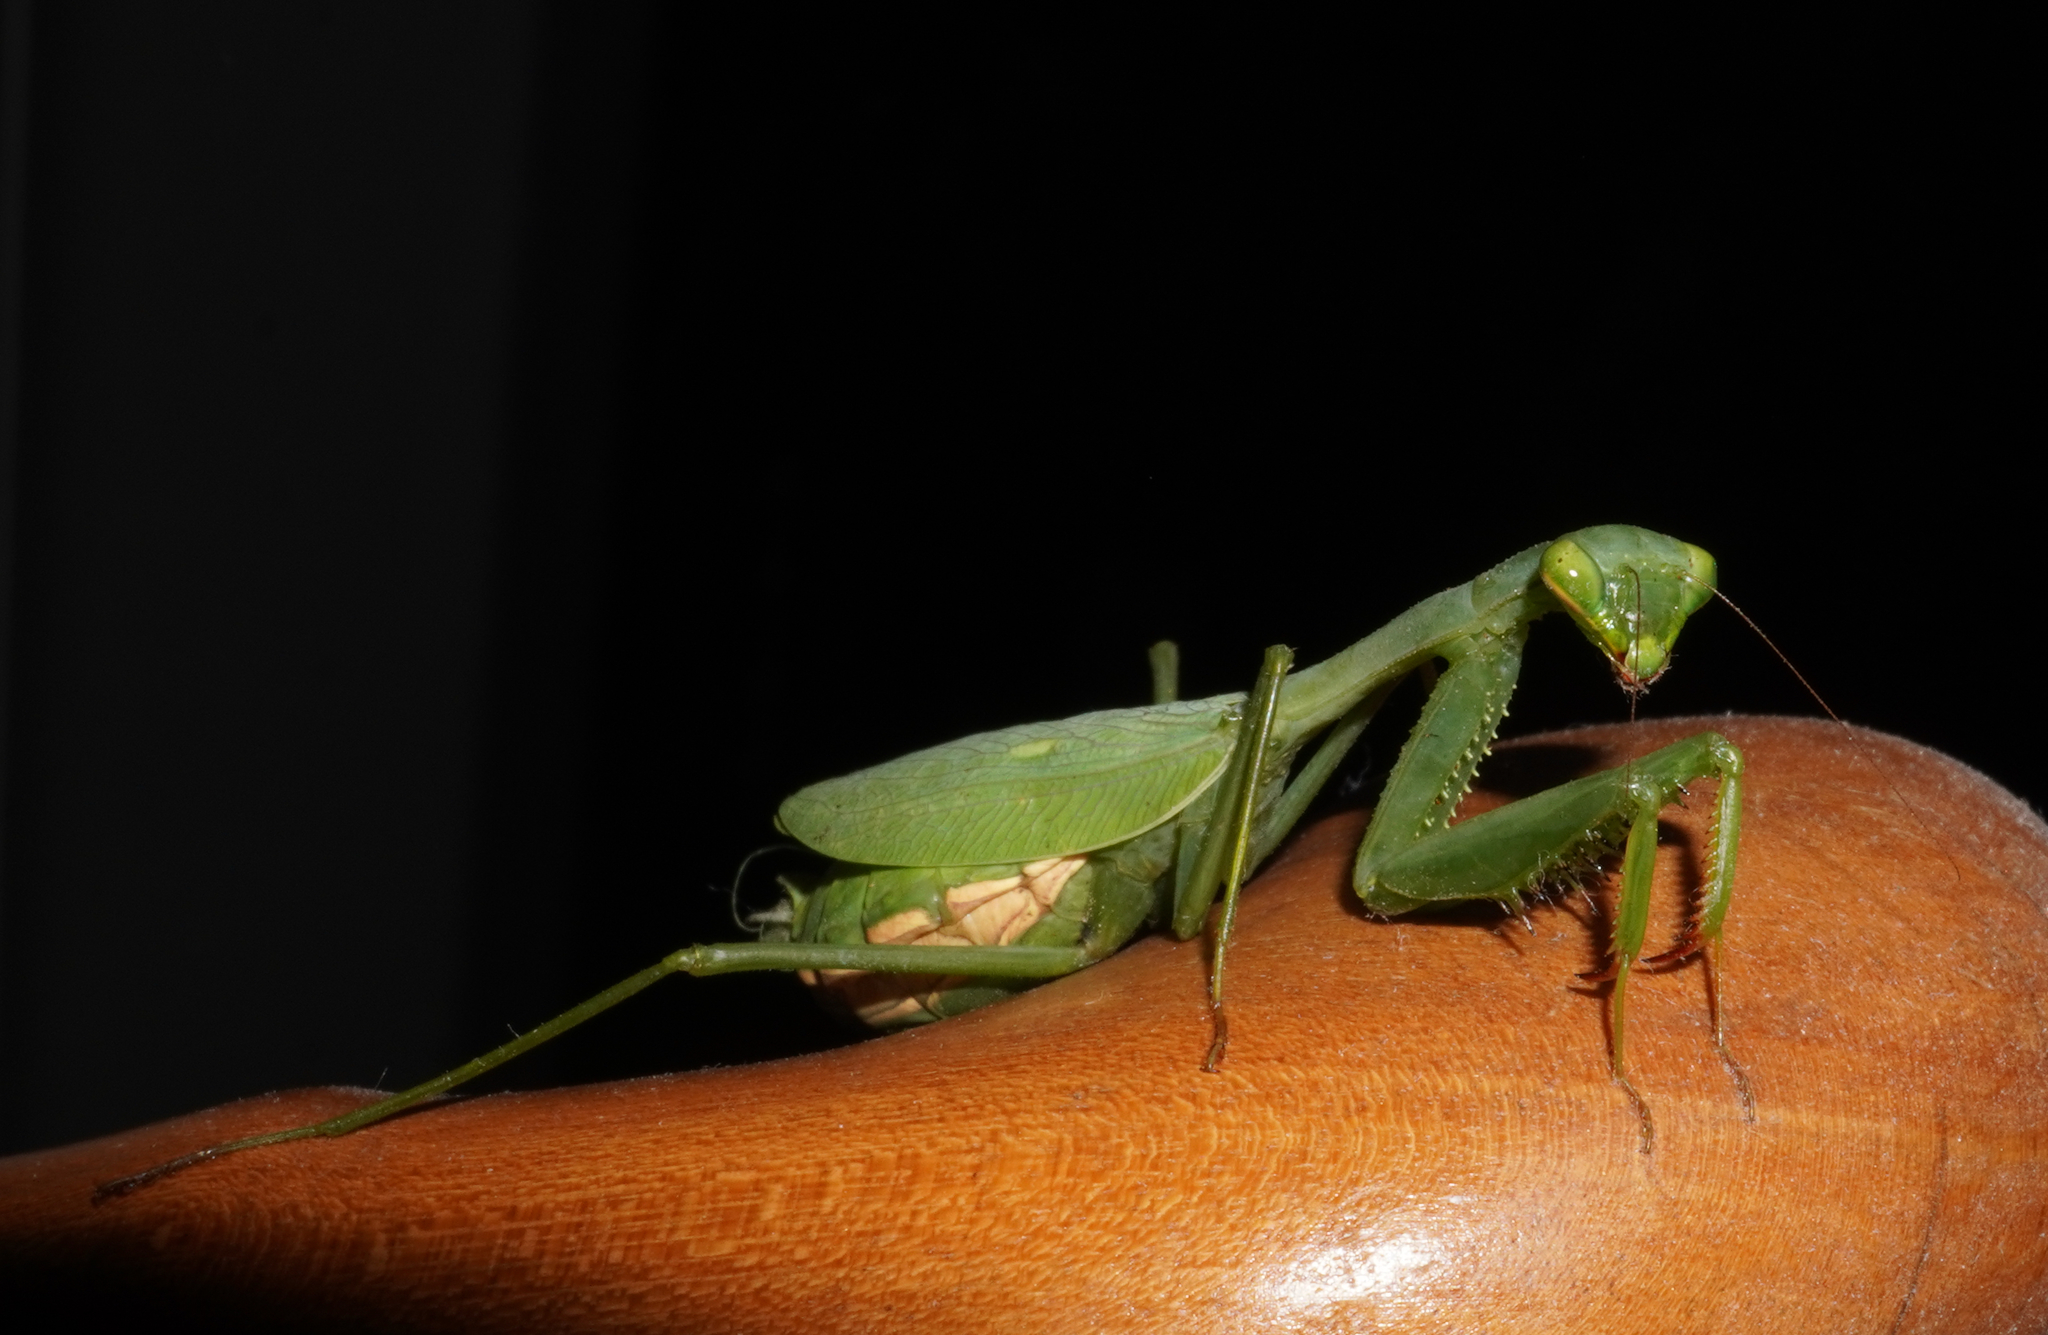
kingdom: Animalia
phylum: Arthropoda
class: Insecta
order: Mantodea
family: Miomantidae
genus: Miomantis
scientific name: Miomantis caffra
